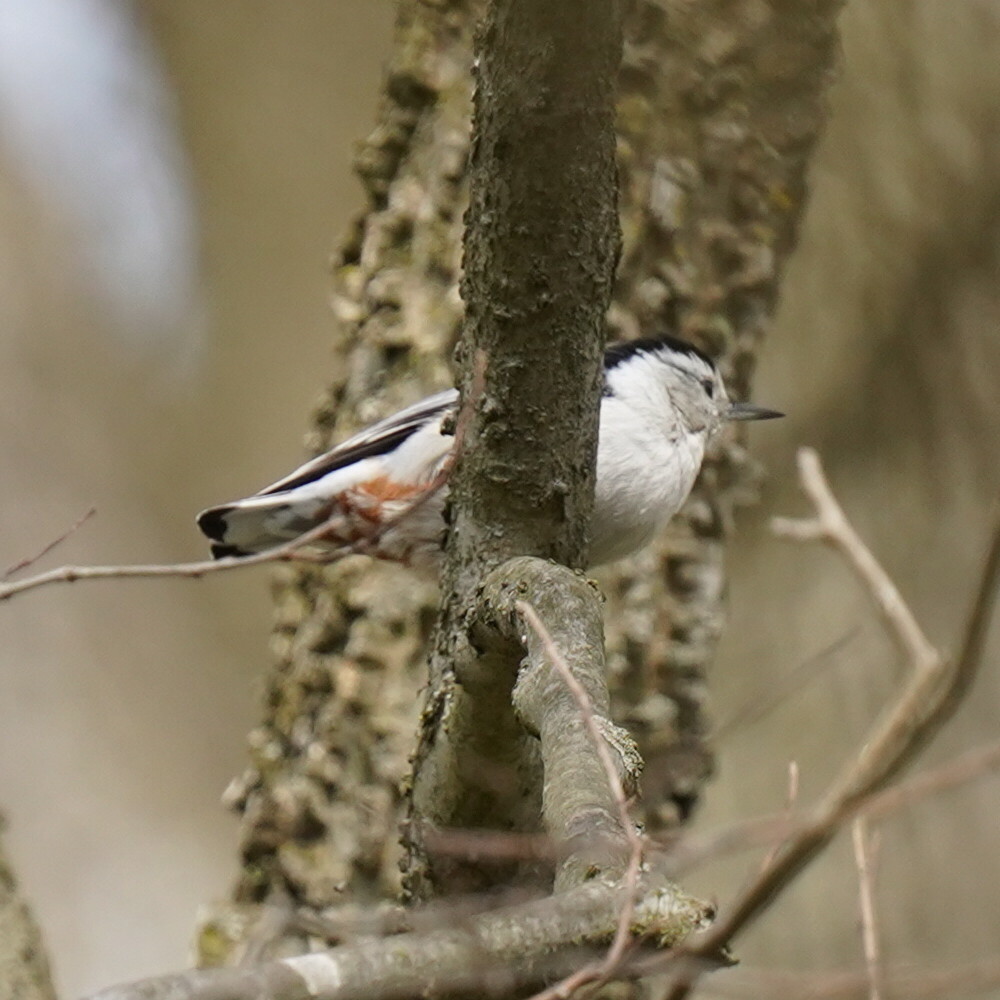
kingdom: Animalia
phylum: Chordata
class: Aves
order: Passeriformes
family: Sittidae
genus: Sitta
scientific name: Sitta carolinensis
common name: White-breasted nuthatch
